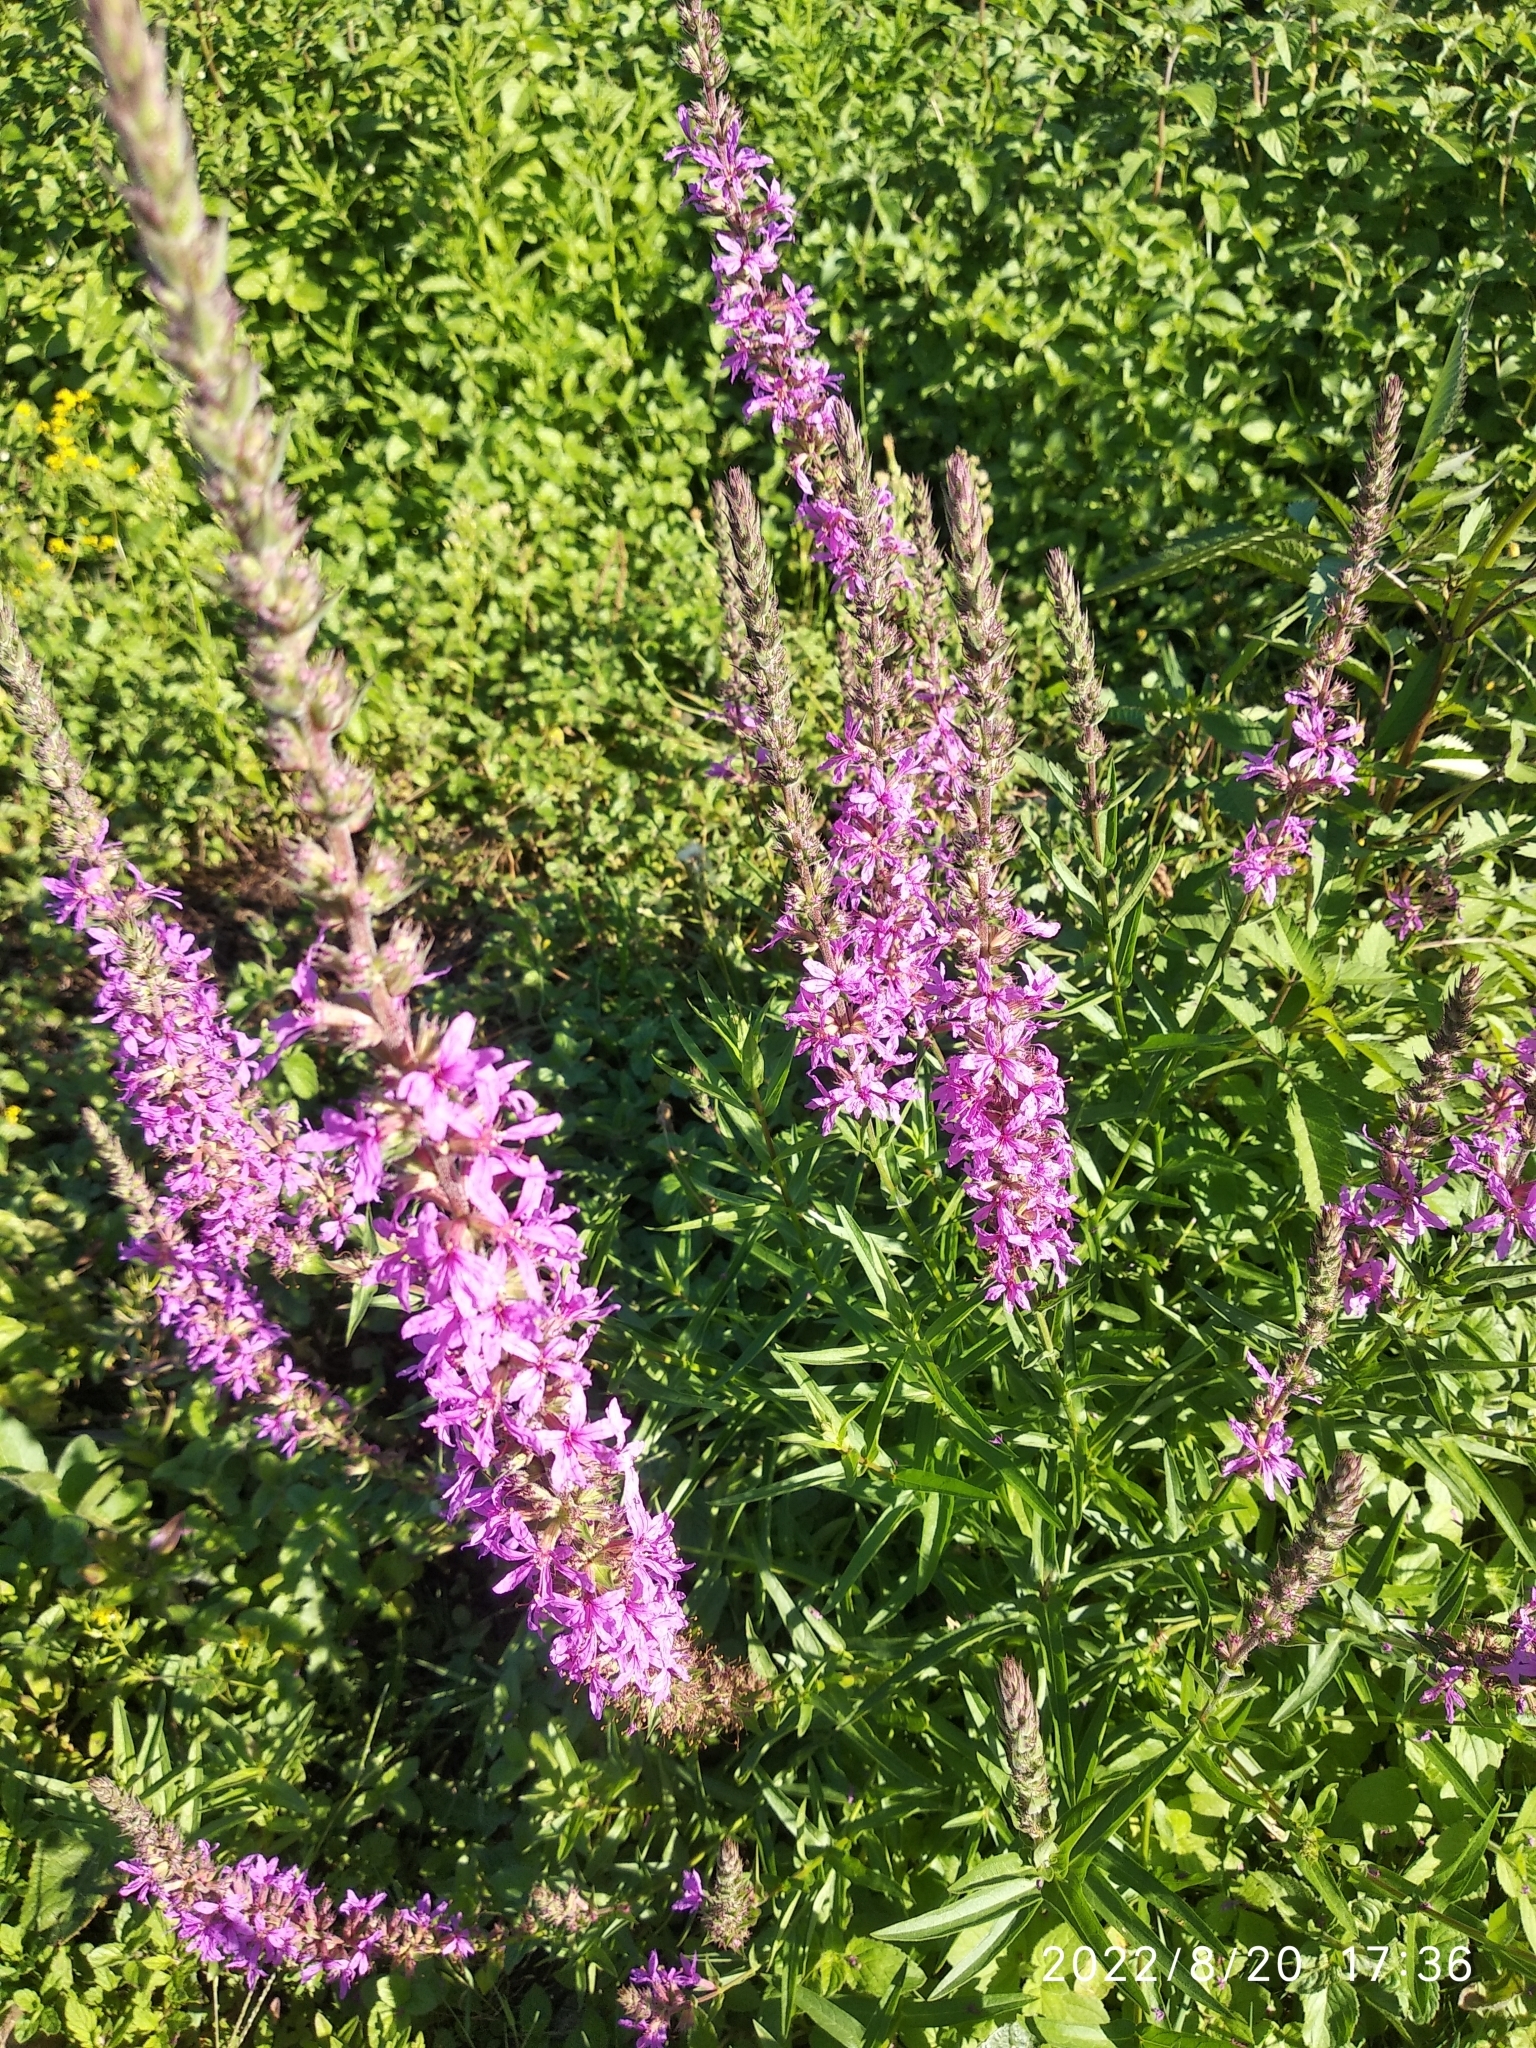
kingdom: Plantae
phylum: Tracheophyta
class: Magnoliopsida
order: Myrtales
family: Lythraceae
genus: Lythrum
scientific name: Lythrum salicaria
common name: Purple loosestrife
